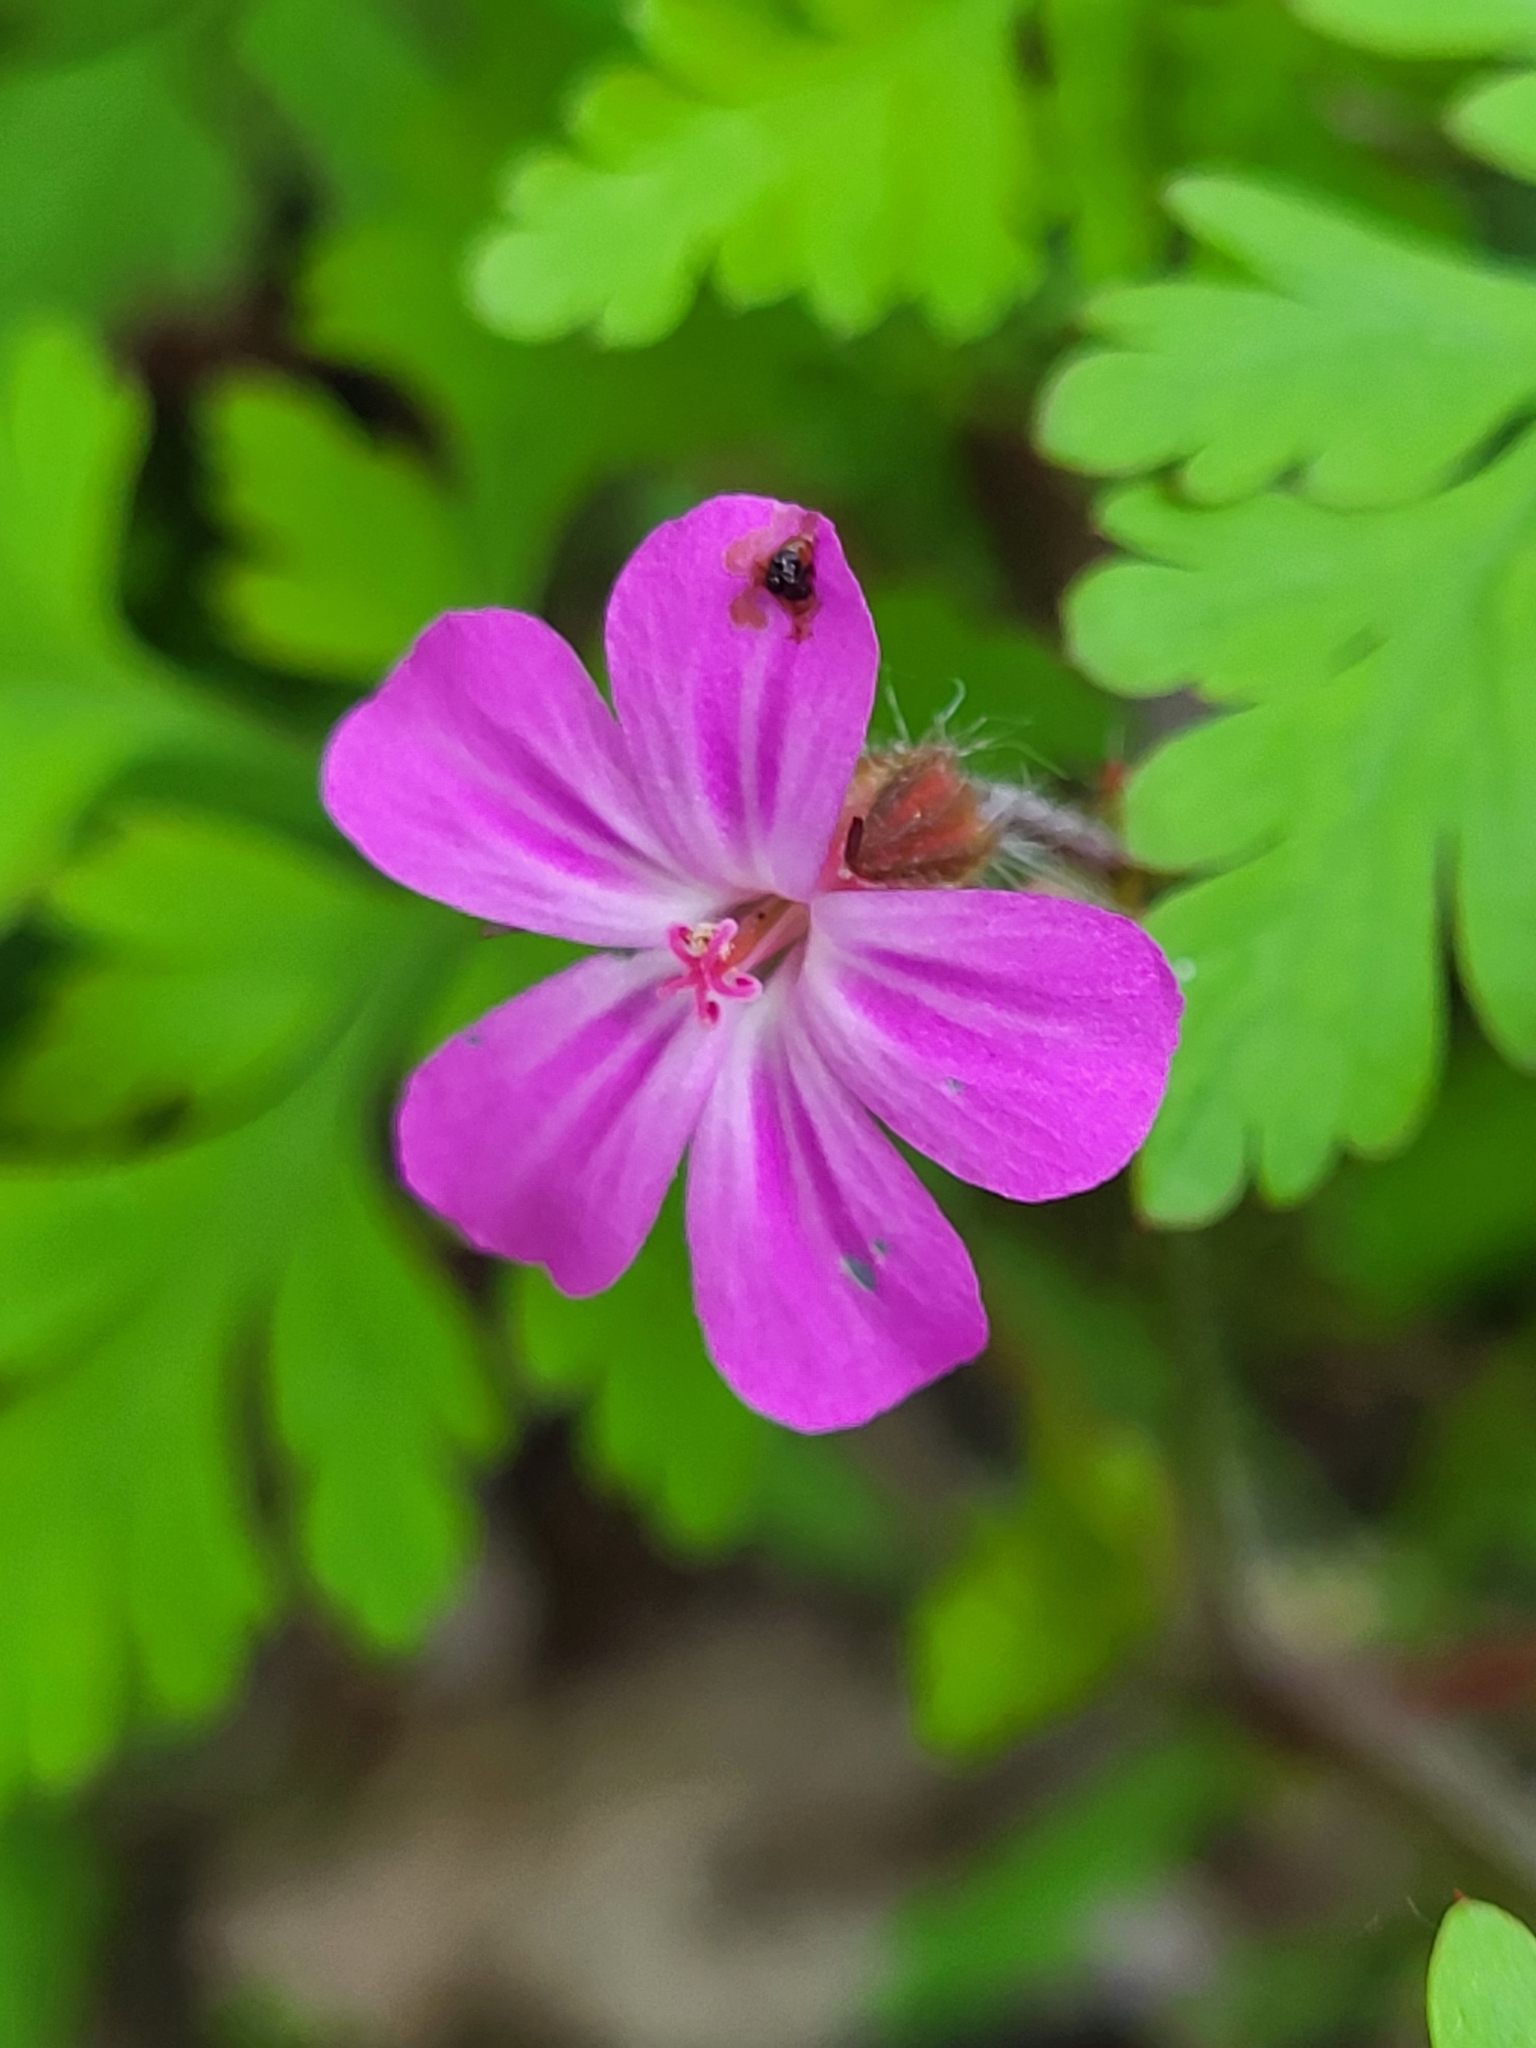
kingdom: Plantae
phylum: Tracheophyta
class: Magnoliopsida
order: Geraniales
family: Geraniaceae
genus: Geranium
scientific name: Geranium robertianum
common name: Herb-robert
